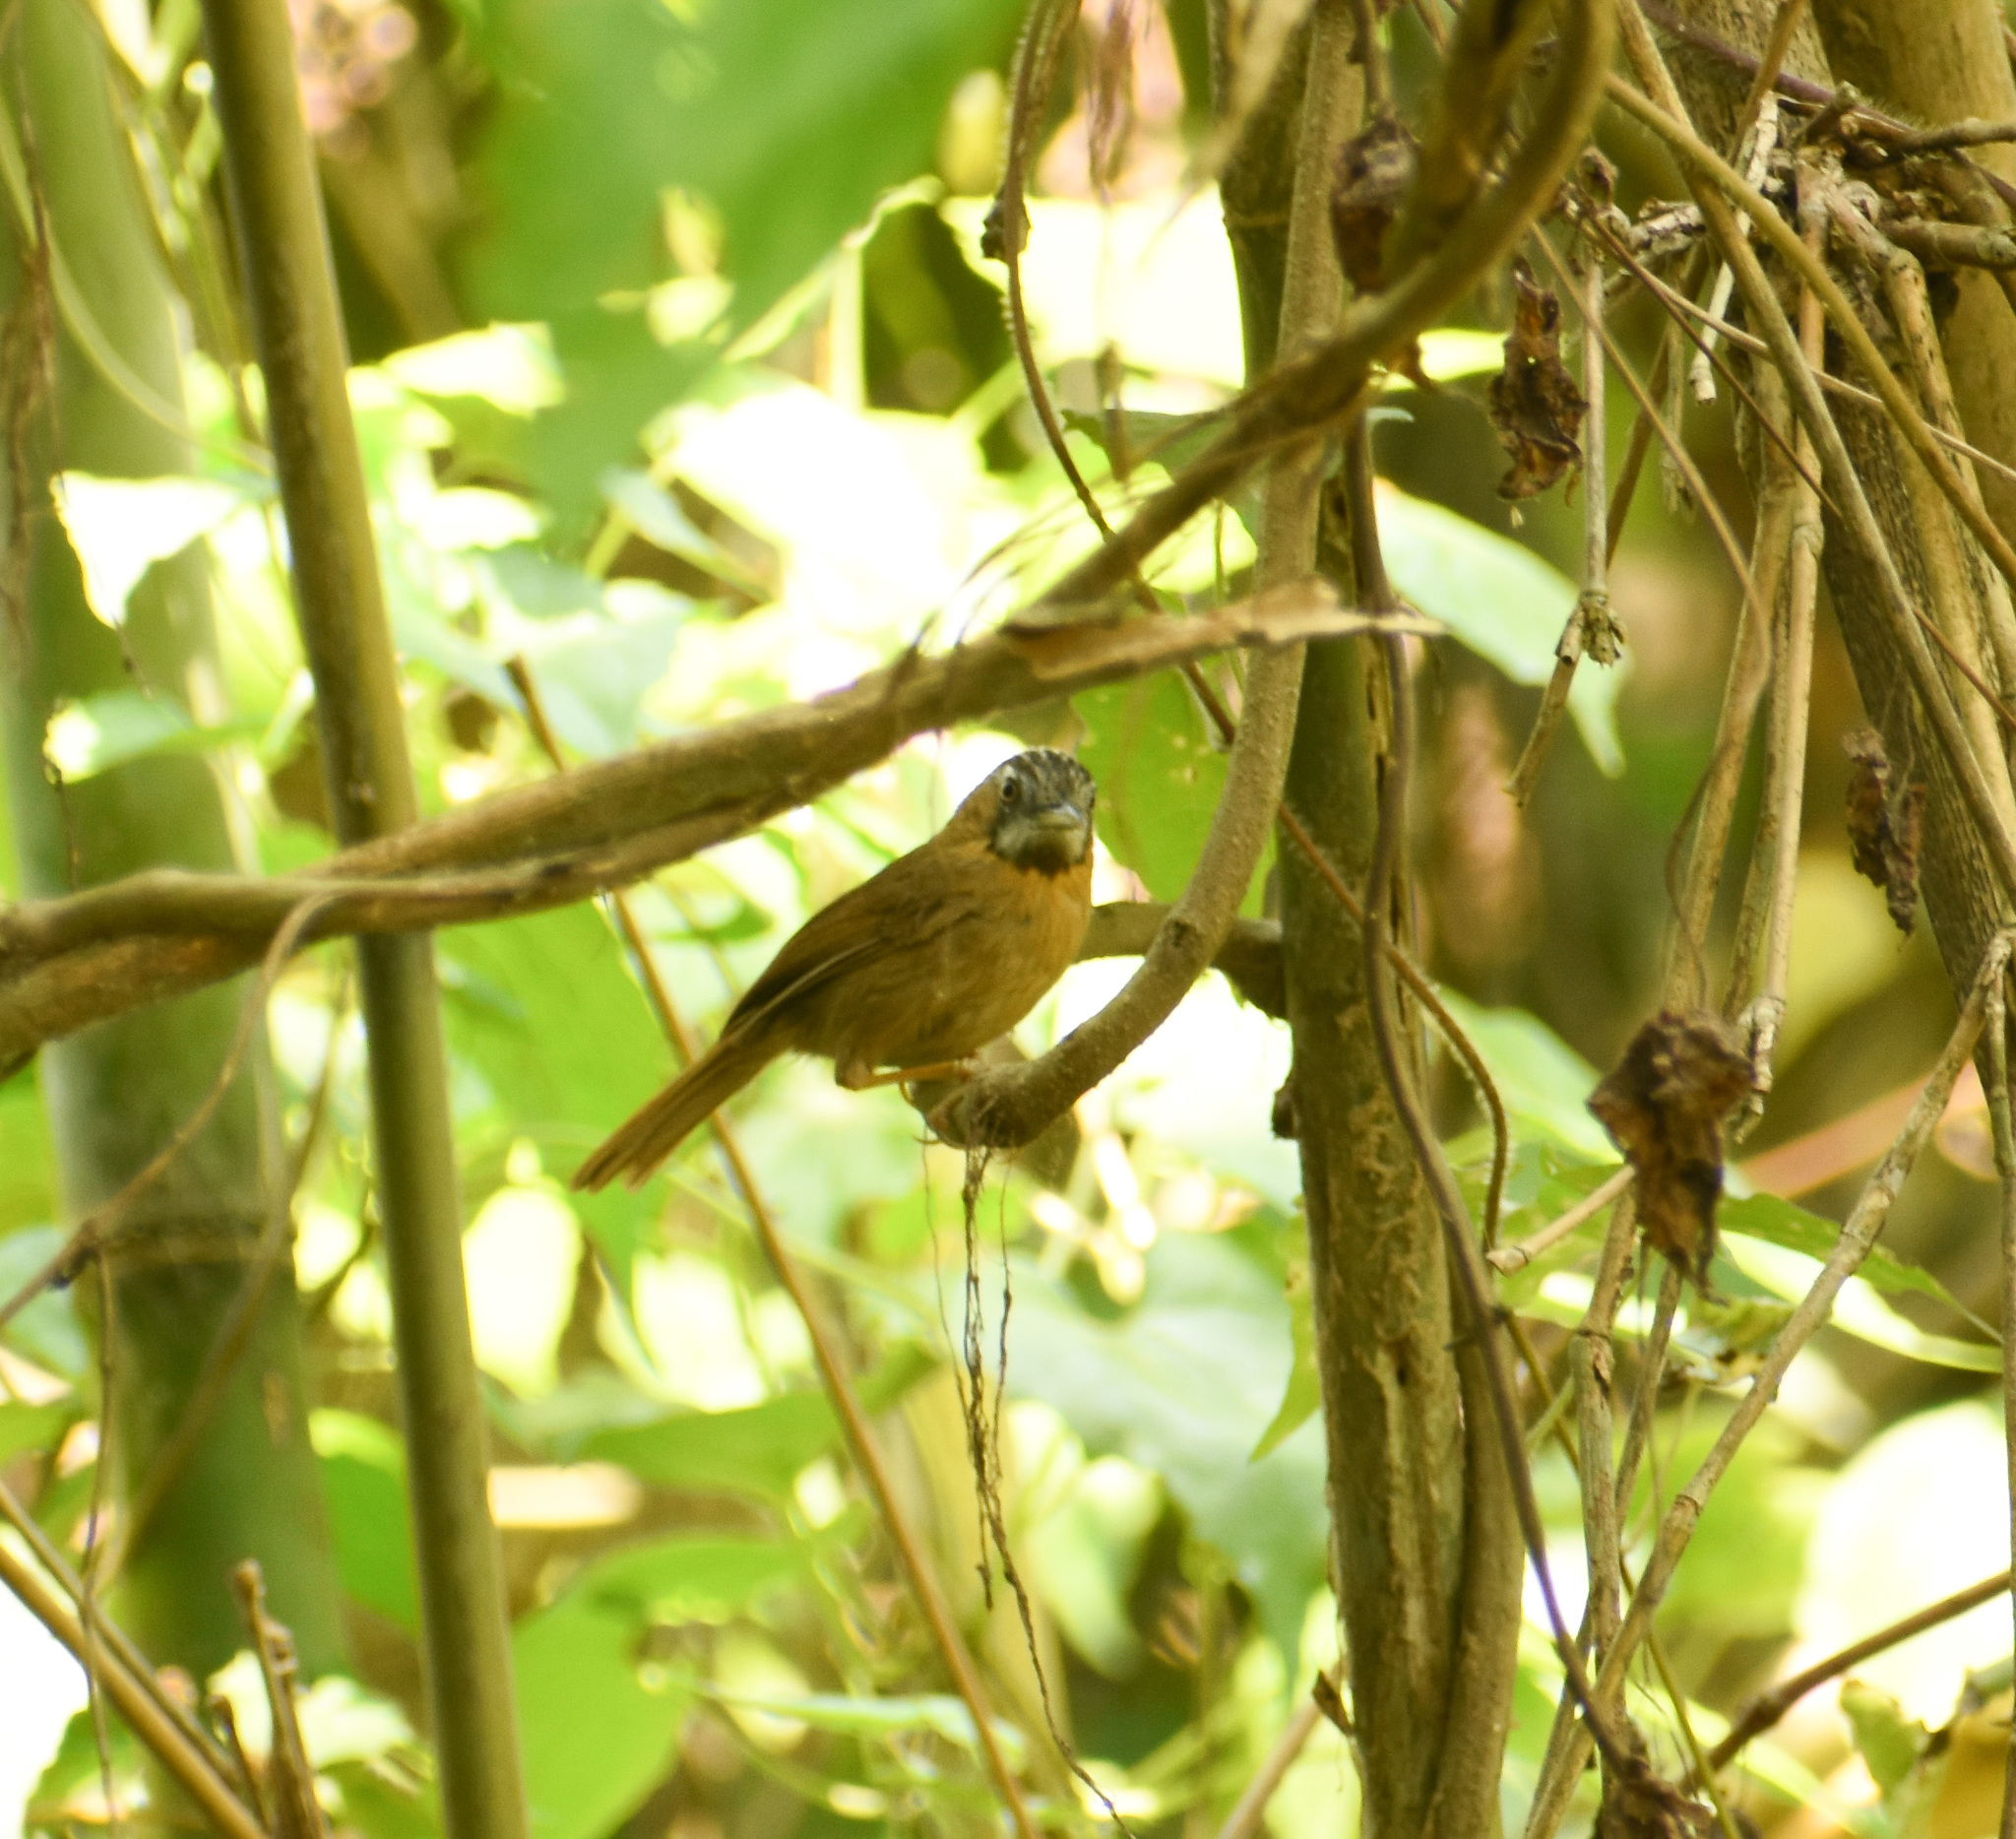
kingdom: Animalia
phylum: Chordata
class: Aves
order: Passeriformes
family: Timaliidae
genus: Stachyris
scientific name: Stachyris nigriceps
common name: Grey-throated babbler
